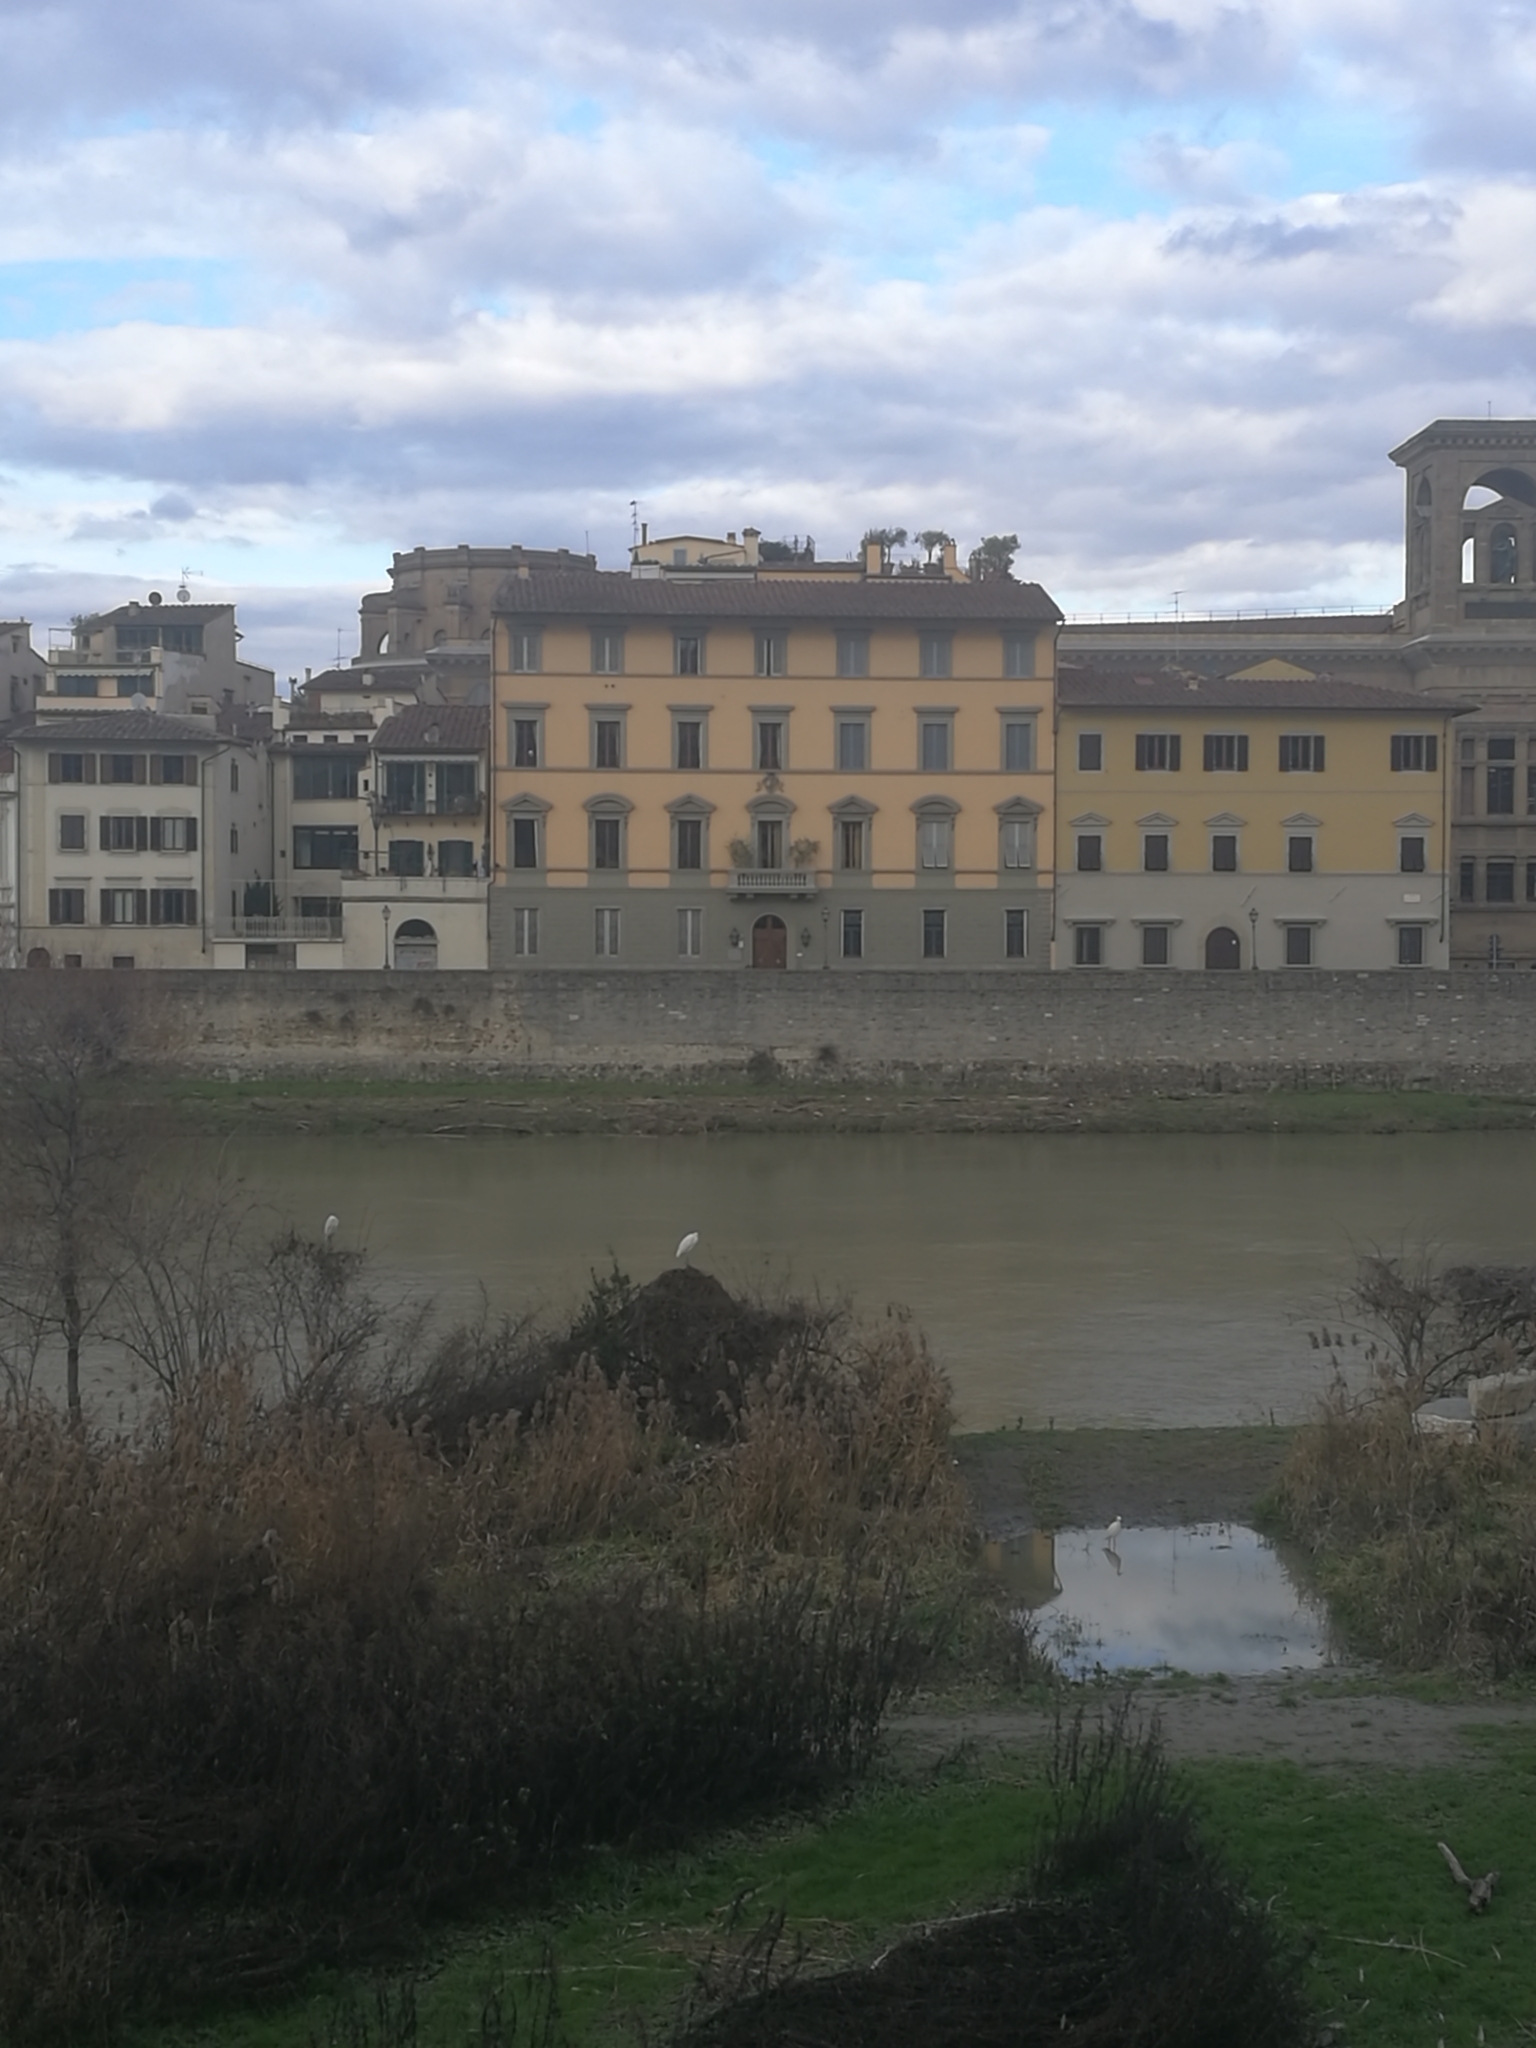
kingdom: Animalia
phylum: Chordata
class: Aves
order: Pelecaniformes
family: Ardeidae
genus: Egretta
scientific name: Egretta garzetta
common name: Little egret
